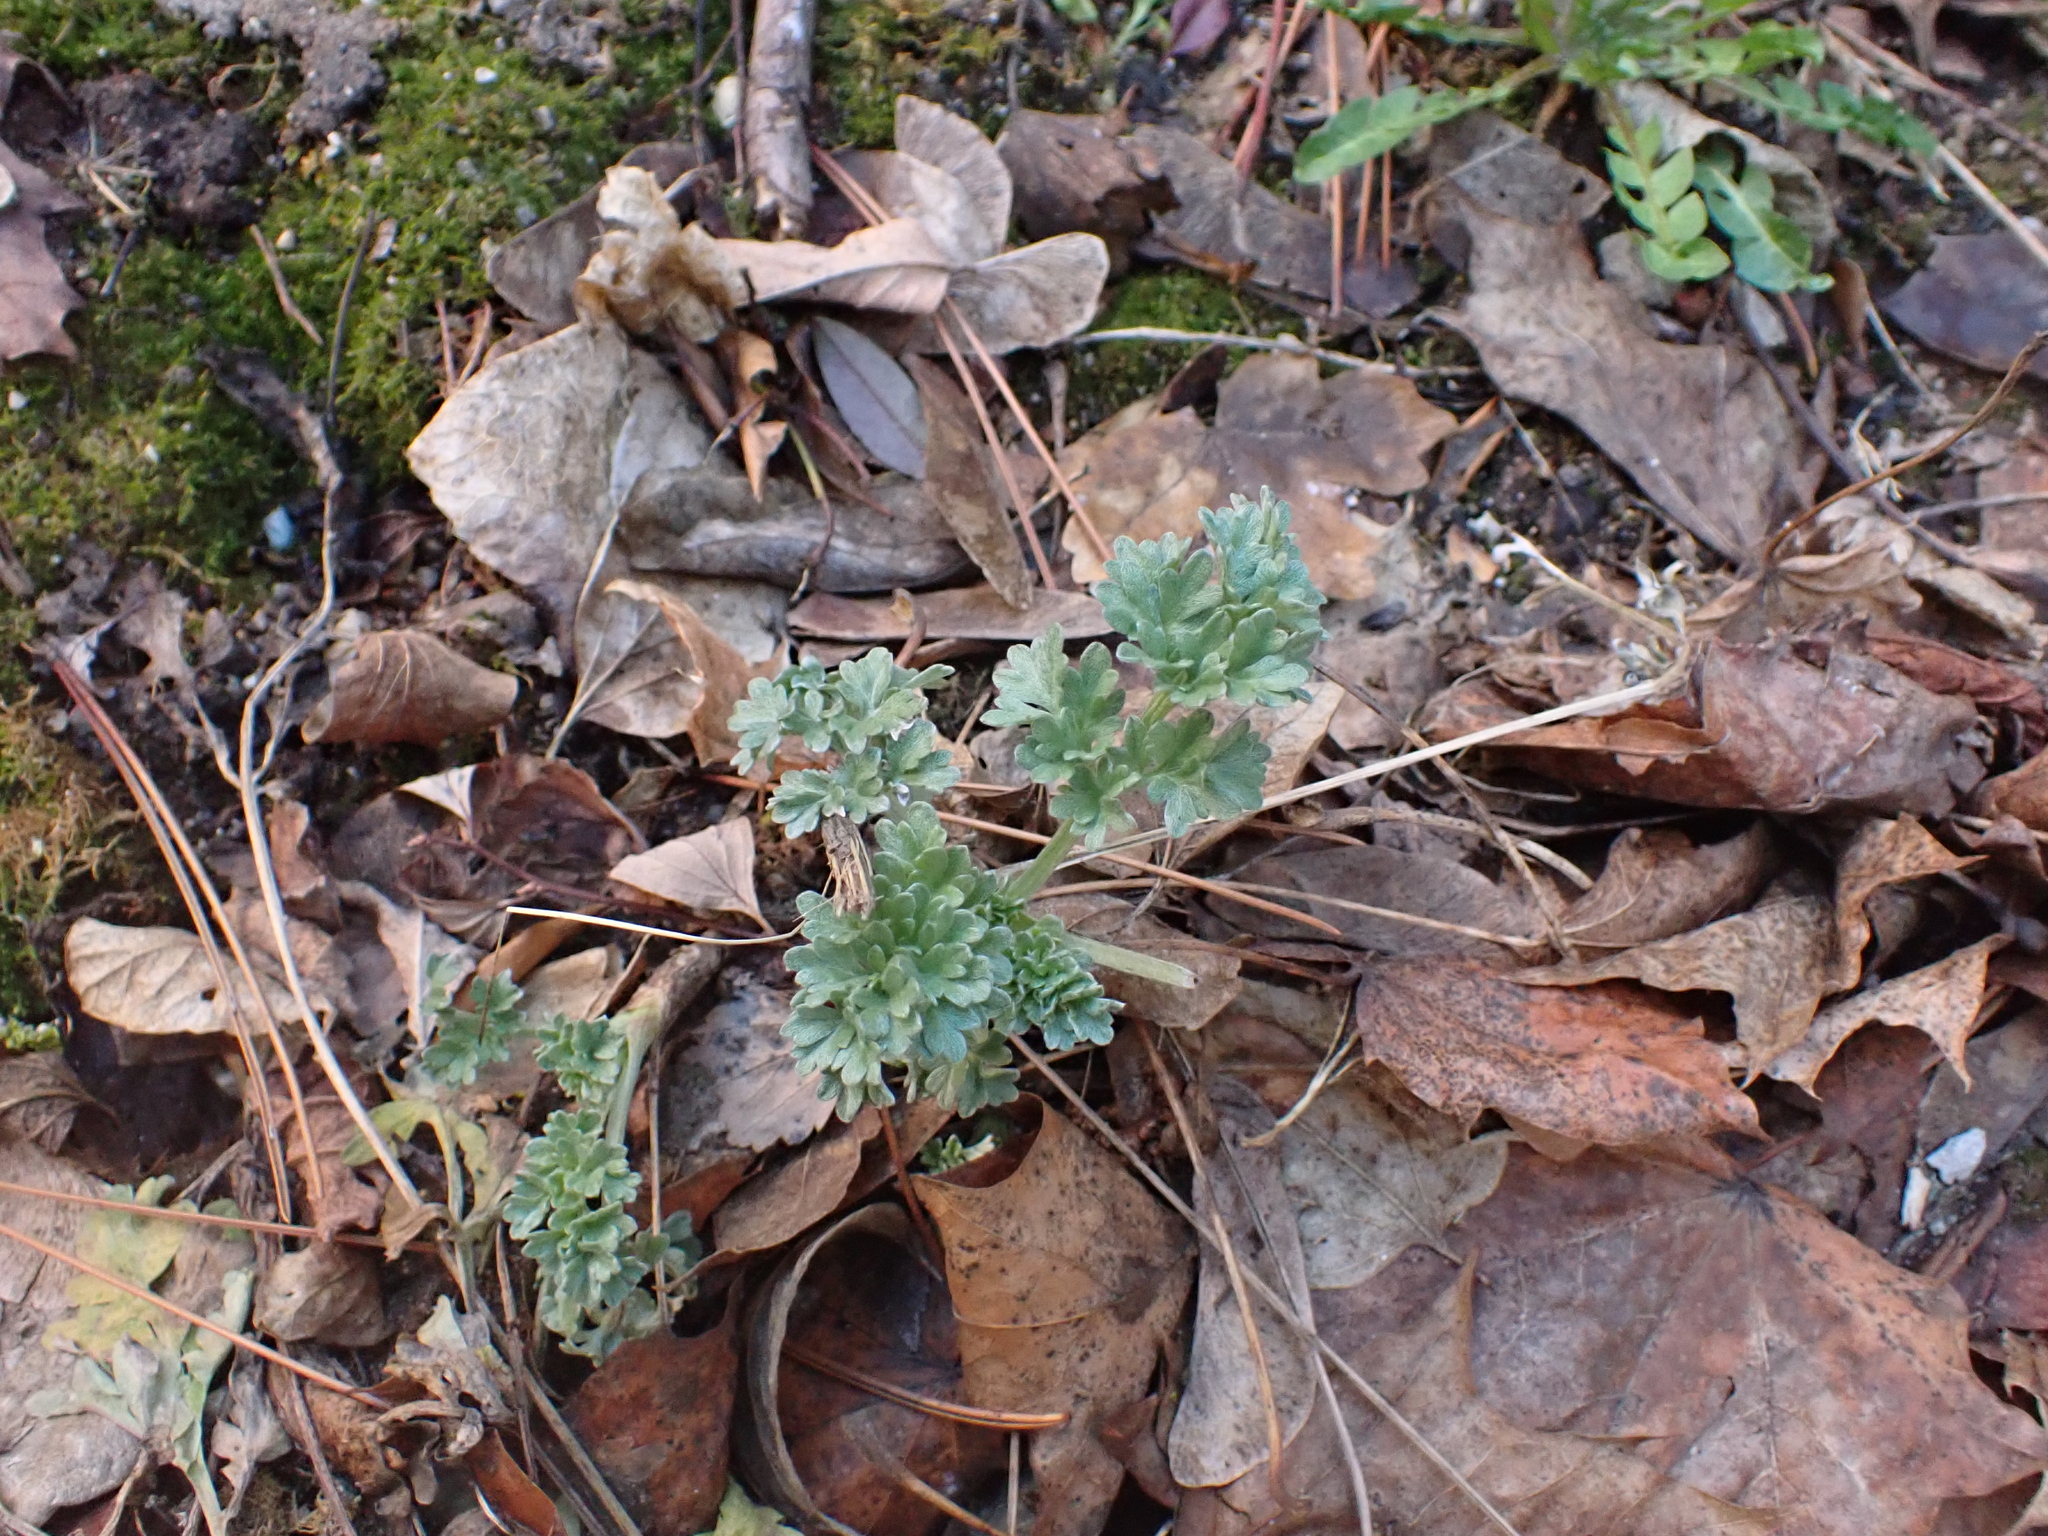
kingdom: Plantae
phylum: Tracheophyta
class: Magnoliopsida
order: Asterales
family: Asteraceae
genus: Artemisia
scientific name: Artemisia absinthium
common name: Wormwood
